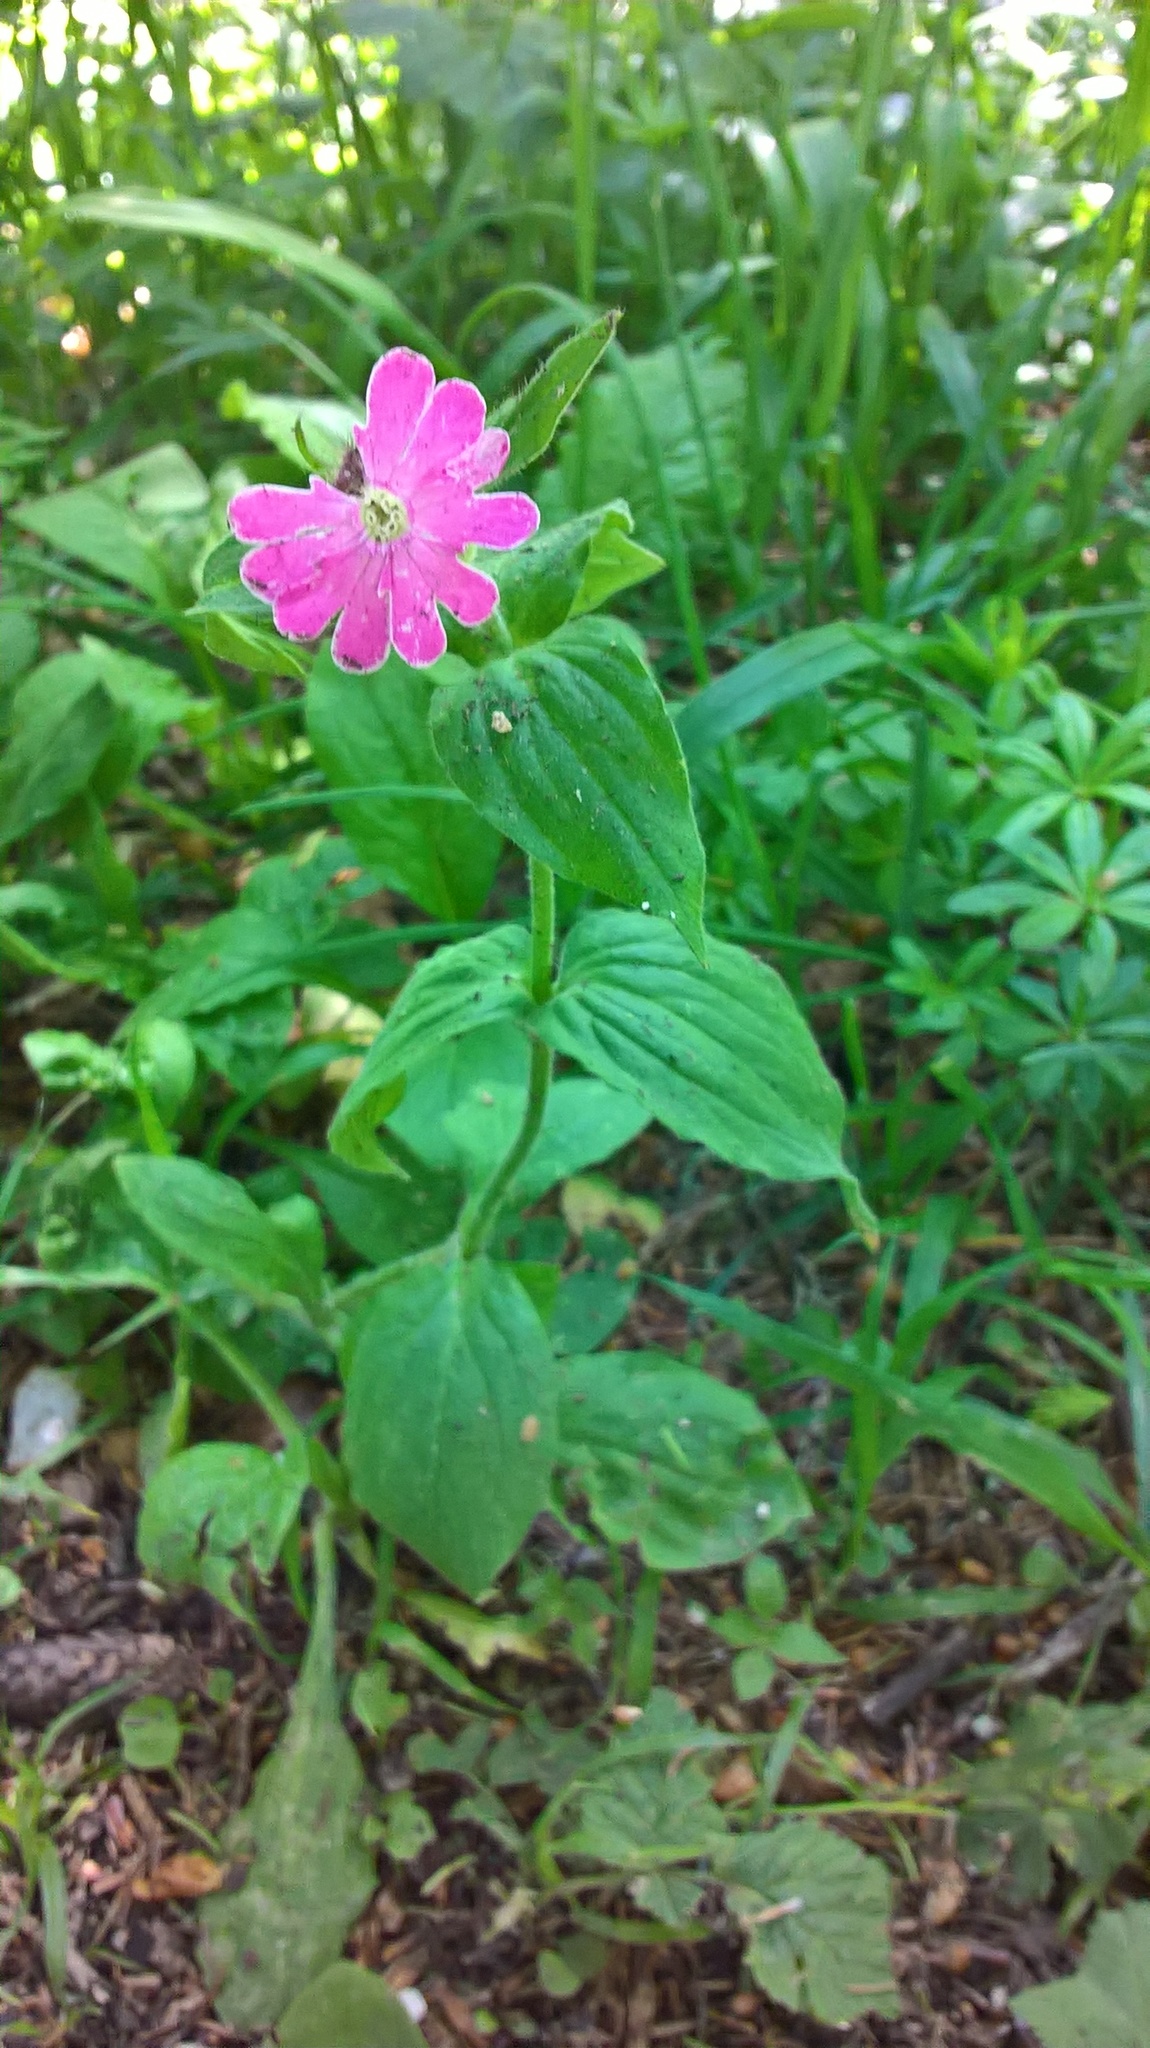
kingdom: Plantae
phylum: Tracheophyta
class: Magnoliopsida
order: Caryophyllales
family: Caryophyllaceae
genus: Silene
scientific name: Silene dioica
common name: Red campion
